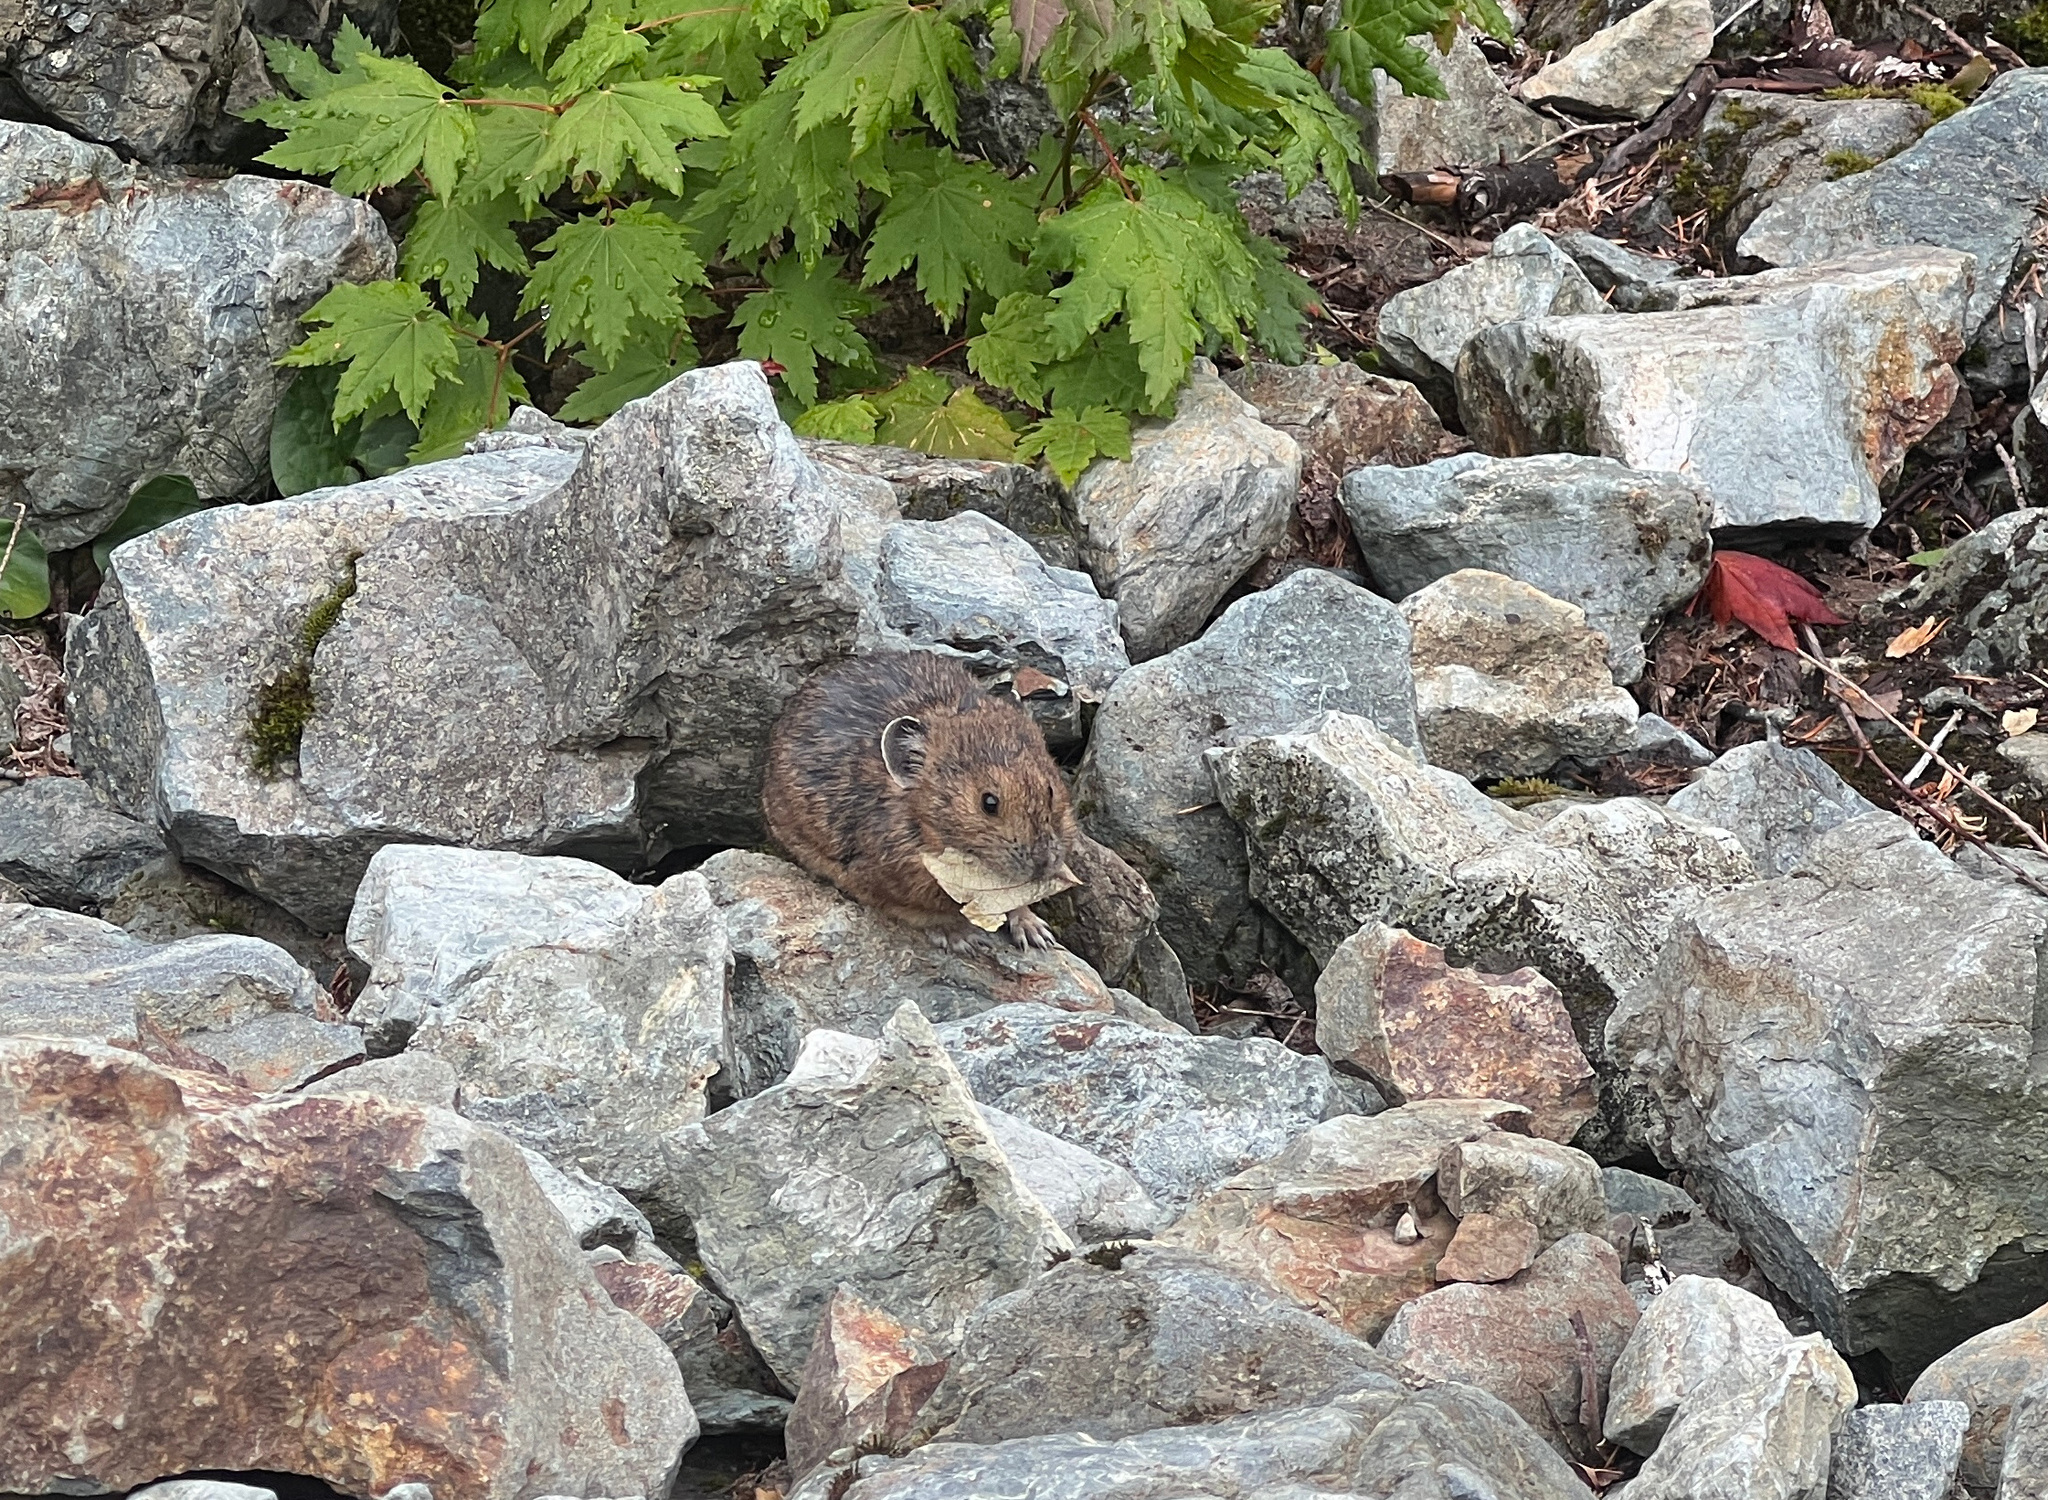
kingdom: Animalia
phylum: Chordata
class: Mammalia
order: Lagomorpha
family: Ochotonidae
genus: Ochotona
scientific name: Ochotona princeps
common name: American pika
